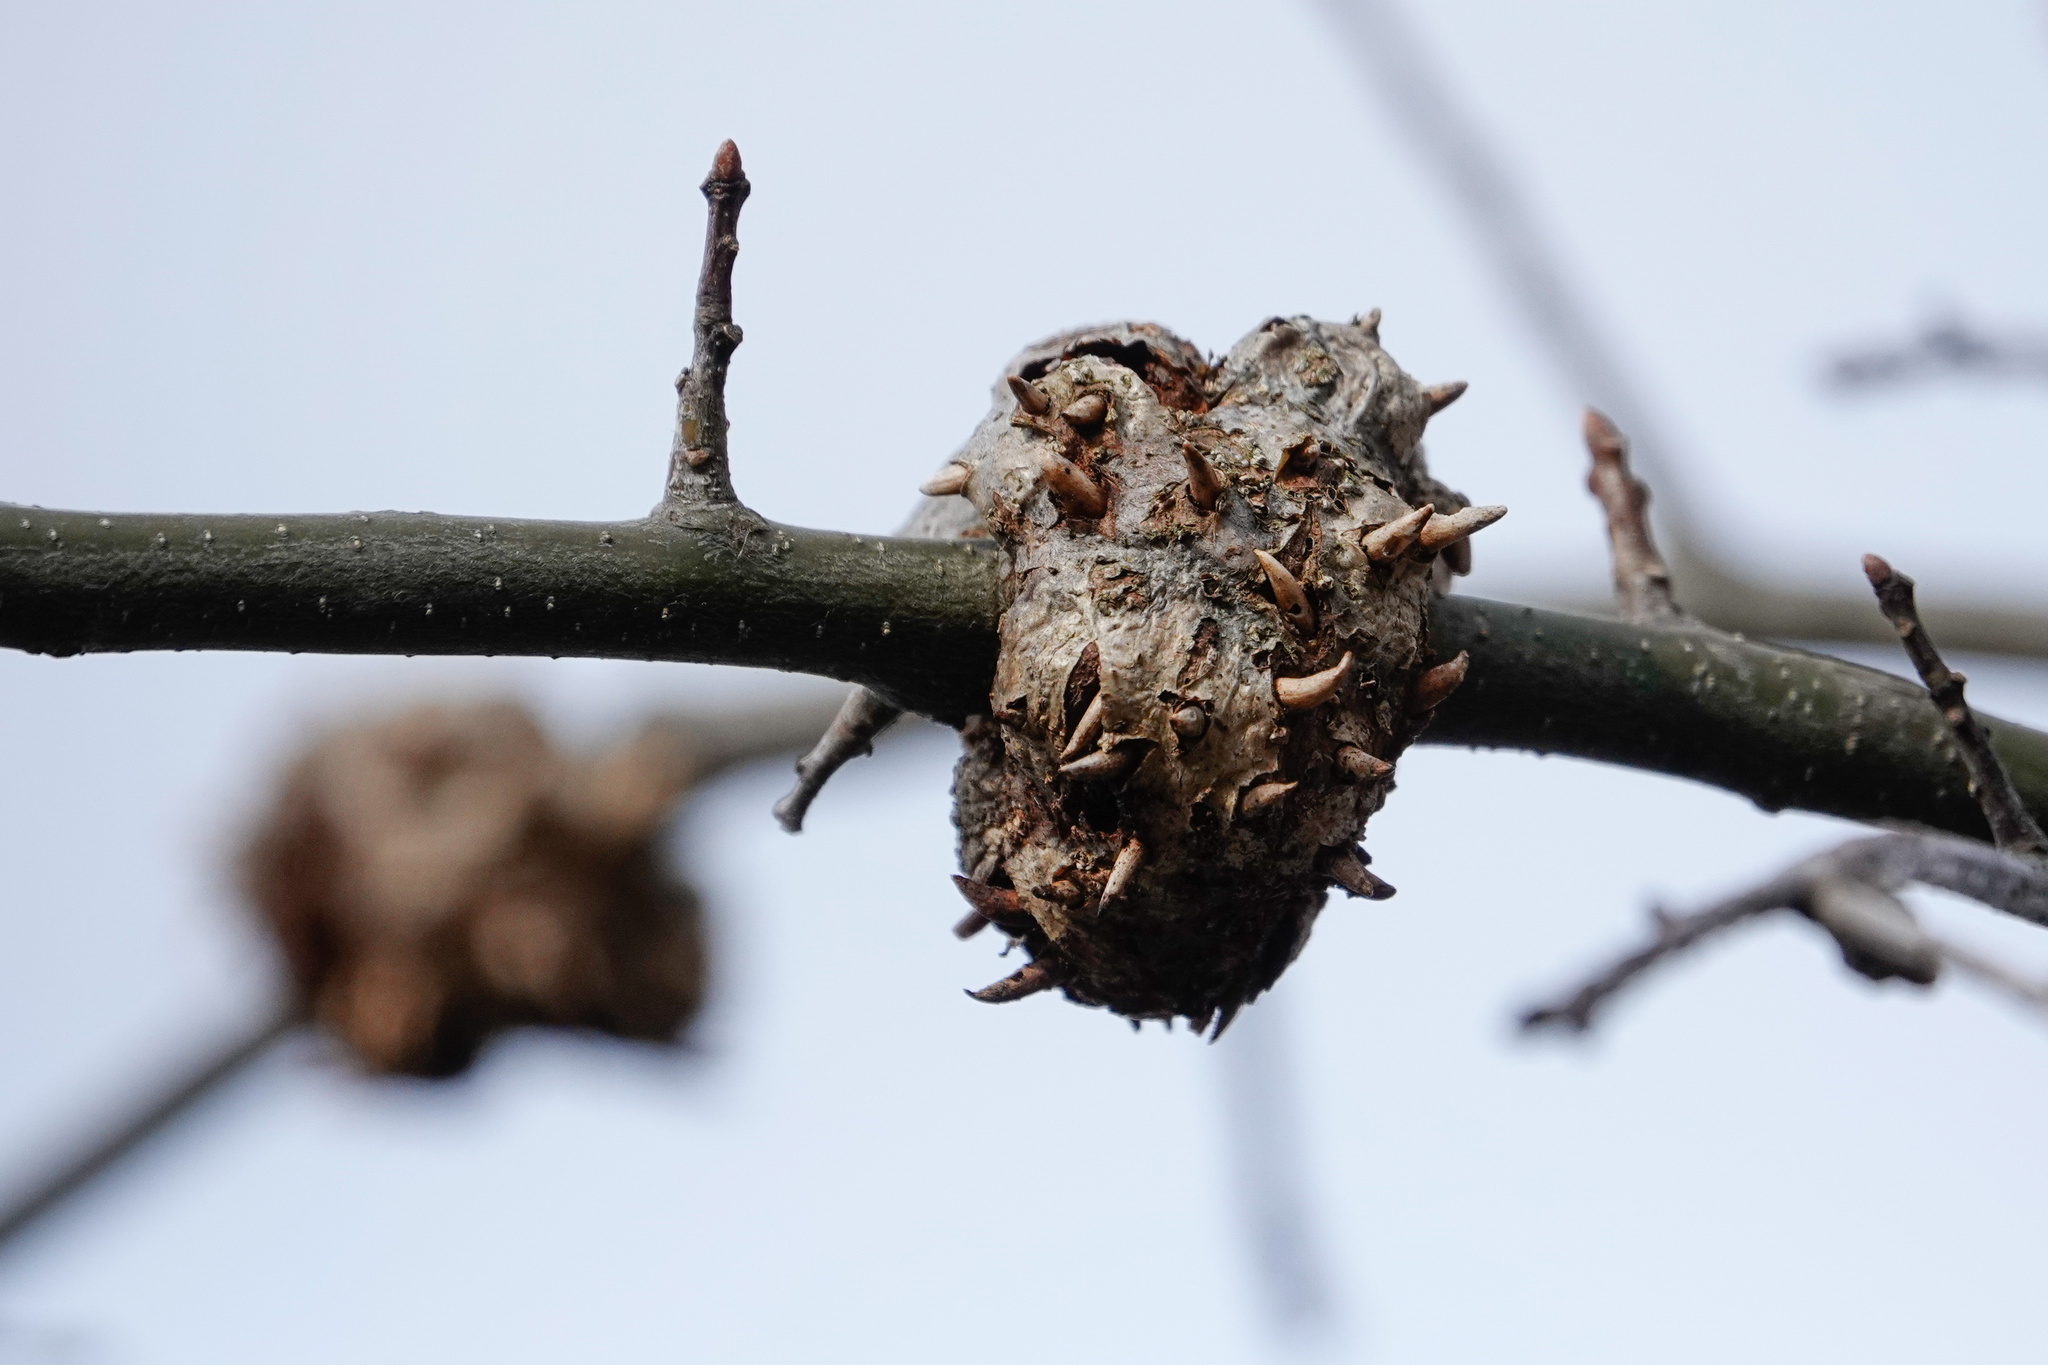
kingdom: Animalia
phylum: Arthropoda
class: Insecta
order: Hymenoptera
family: Cynipidae
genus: Callirhytis
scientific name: Callirhytis
